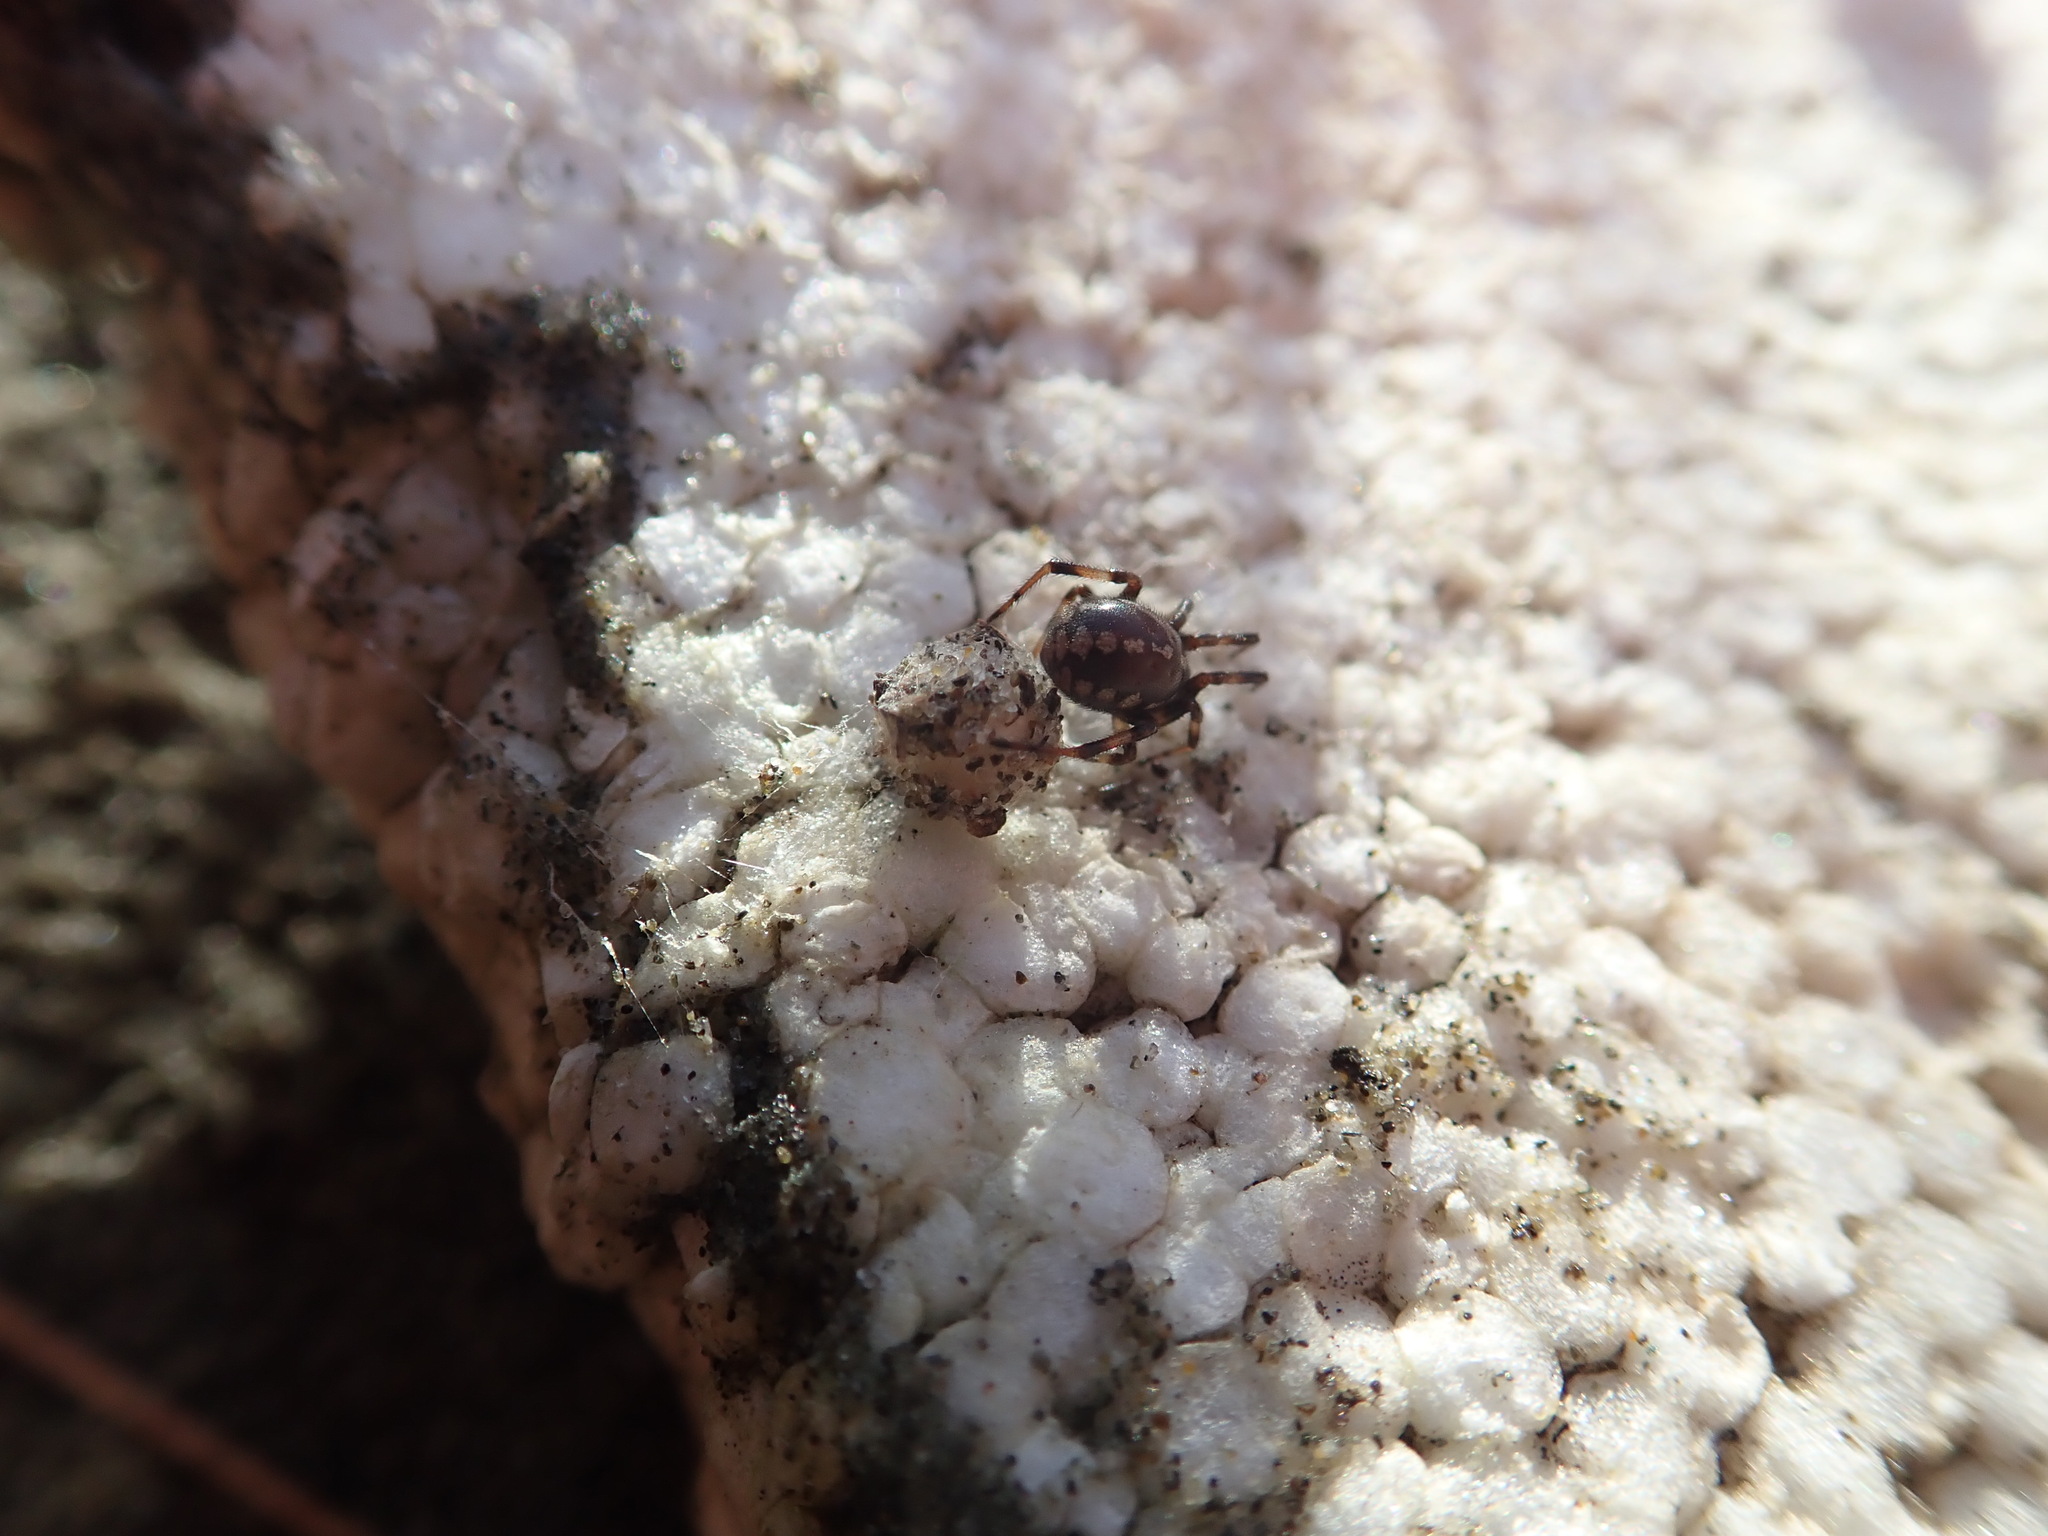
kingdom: Animalia
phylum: Arthropoda
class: Arachnida
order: Araneae
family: Theridiidae
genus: Steatoda
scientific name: Steatoda lepida
